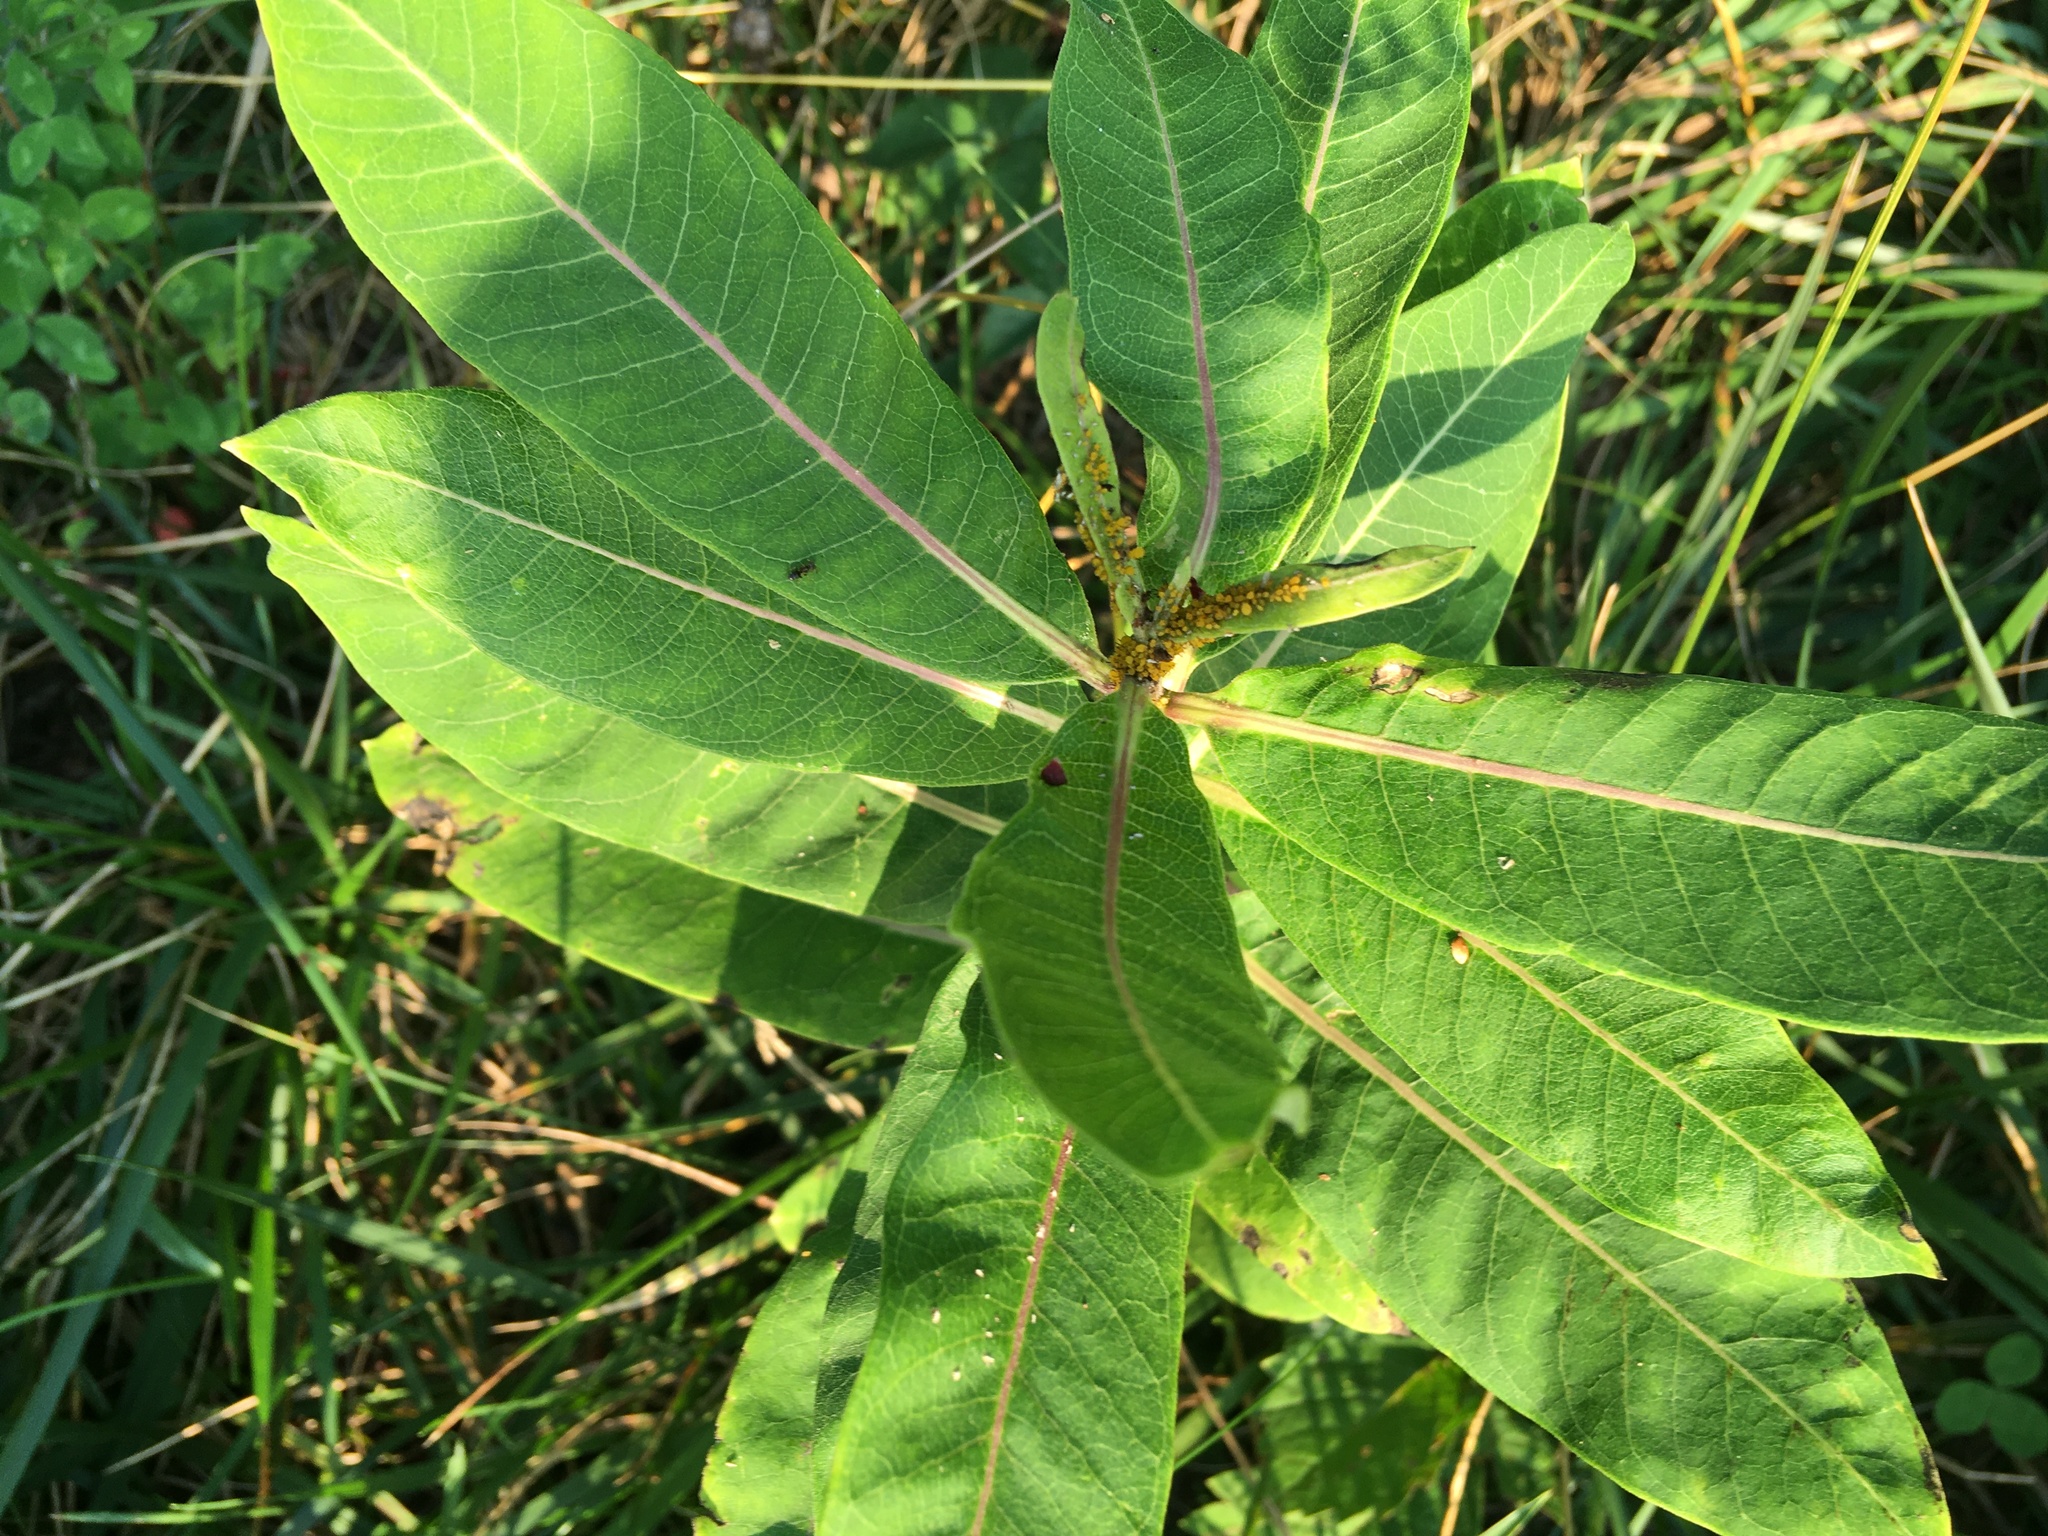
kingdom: Plantae
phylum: Tracheophyta
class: Magnoliopsida
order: Gentianales
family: Apocynaceae
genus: Asclepias
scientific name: Asclepias syriaca
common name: Common milkweed
